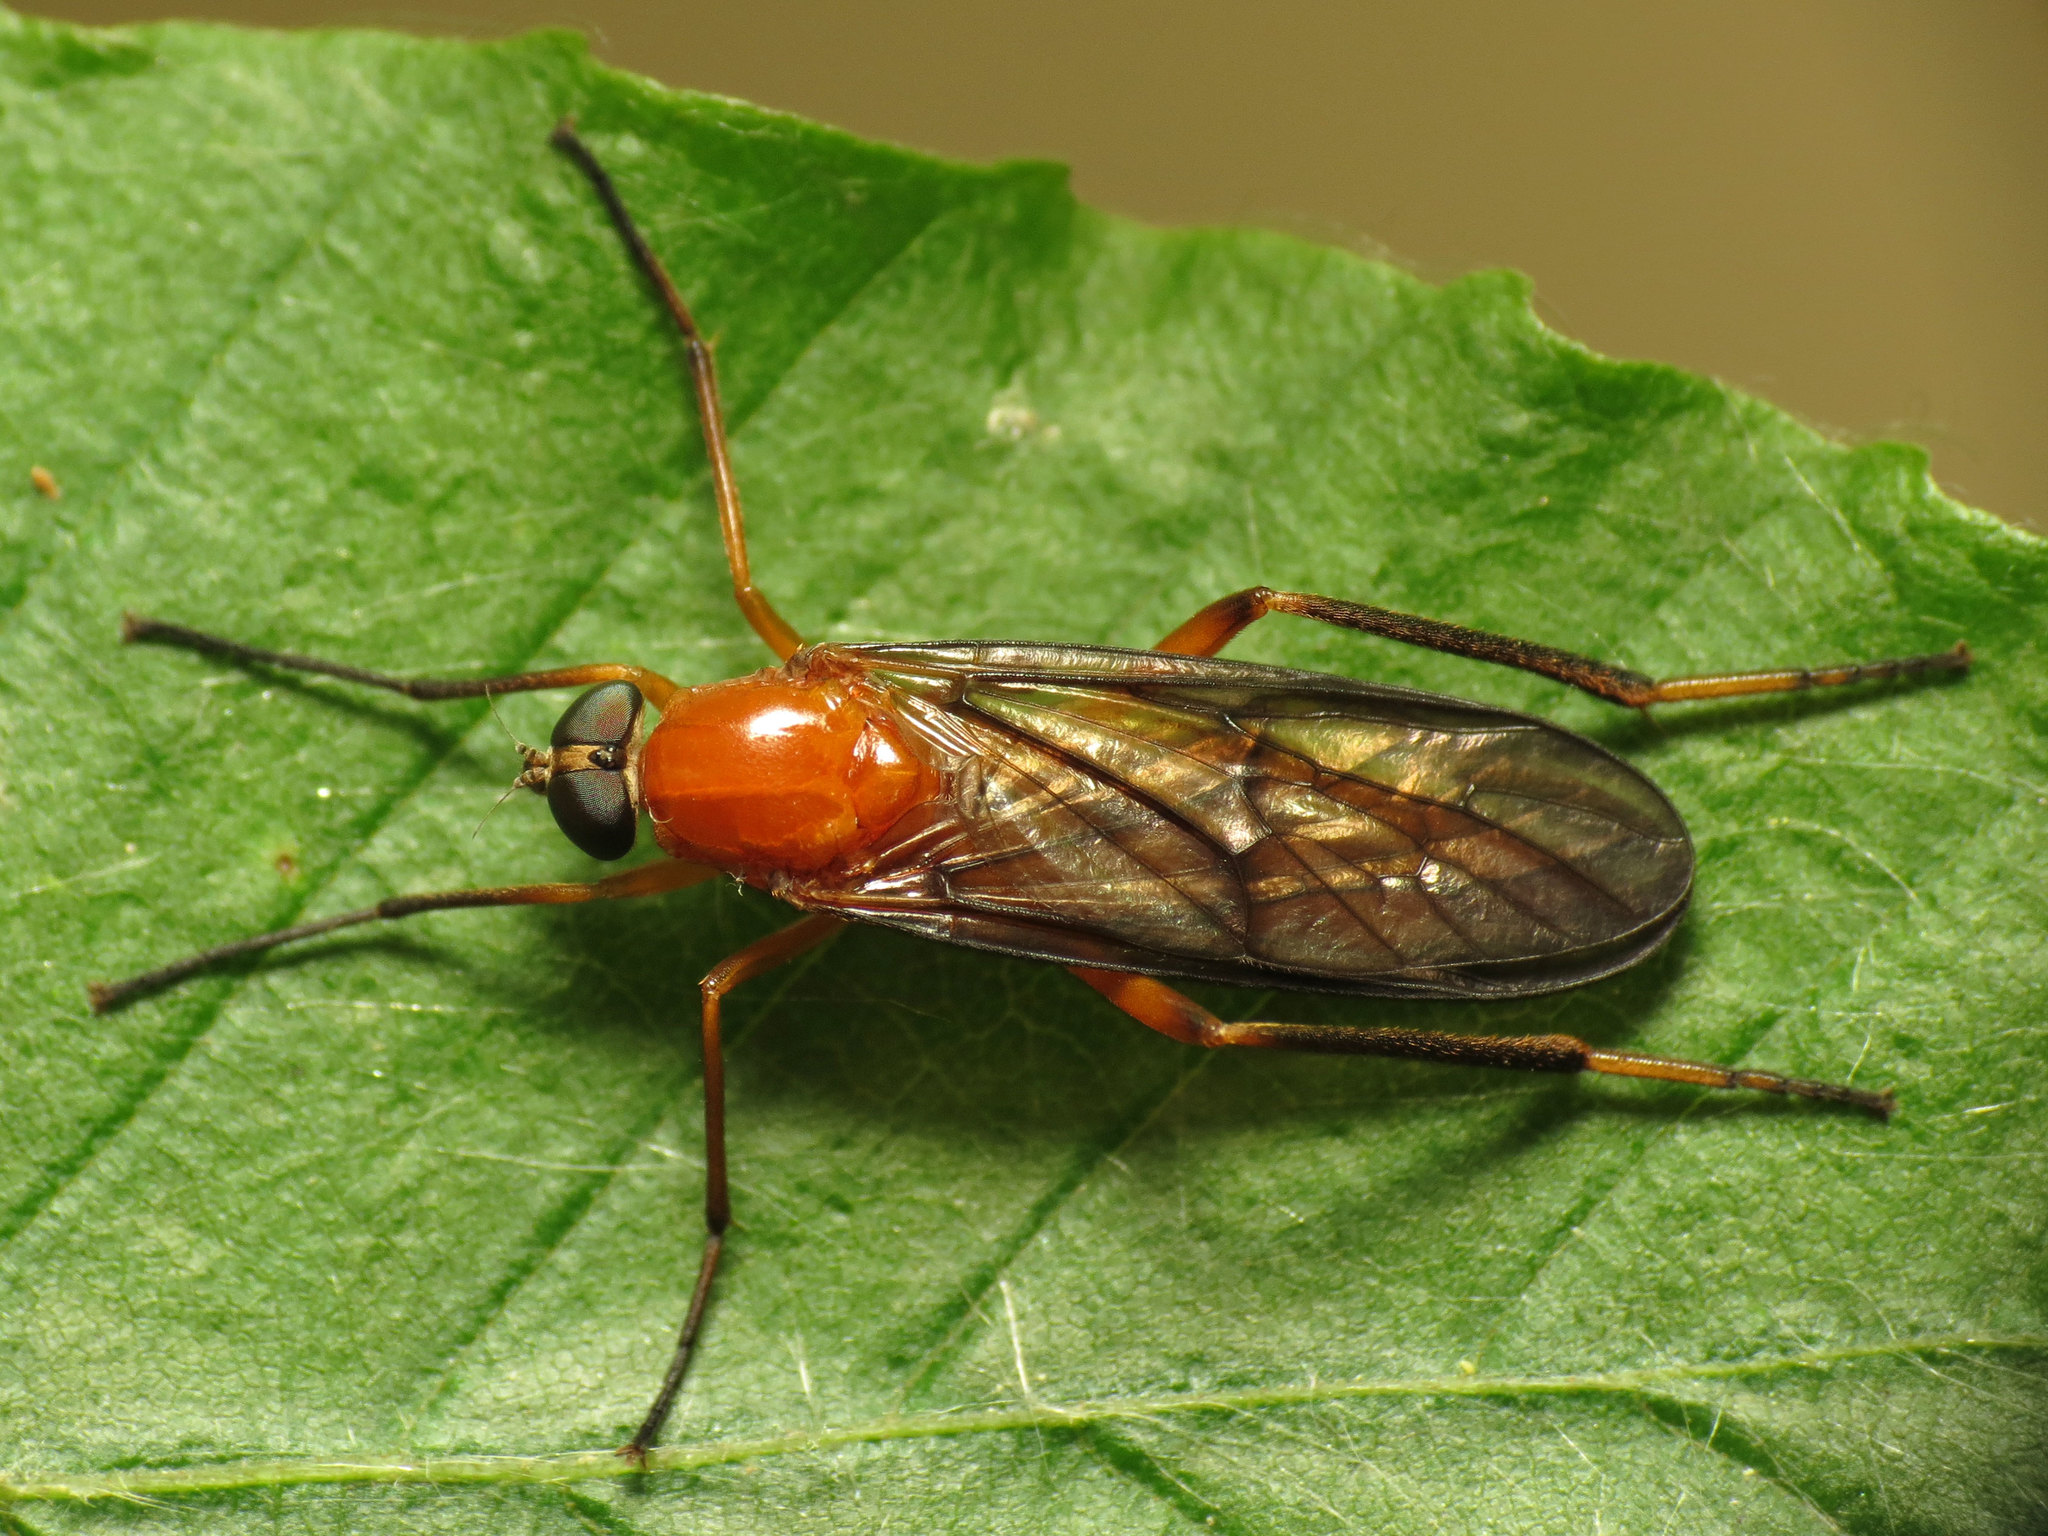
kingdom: Animalia
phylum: Arthropoda
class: Insecta
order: Diptera
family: Xylophagidae
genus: Dialysis
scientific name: Dialysis rufithorax
